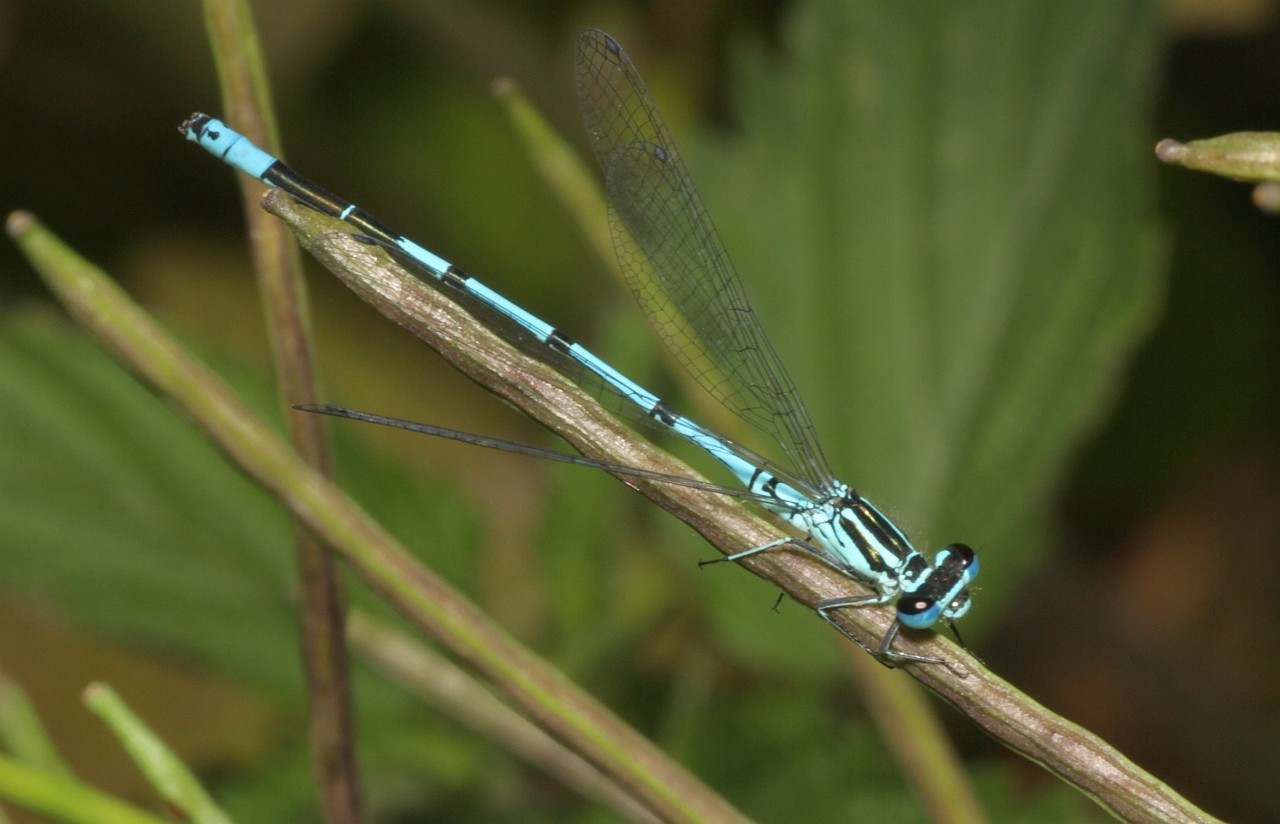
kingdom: Animalia
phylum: Arthropoda
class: Insecta
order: Odonata
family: Coenagrionidae
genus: Coenagrion
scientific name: Coenagrion puella
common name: Azure damselfly
